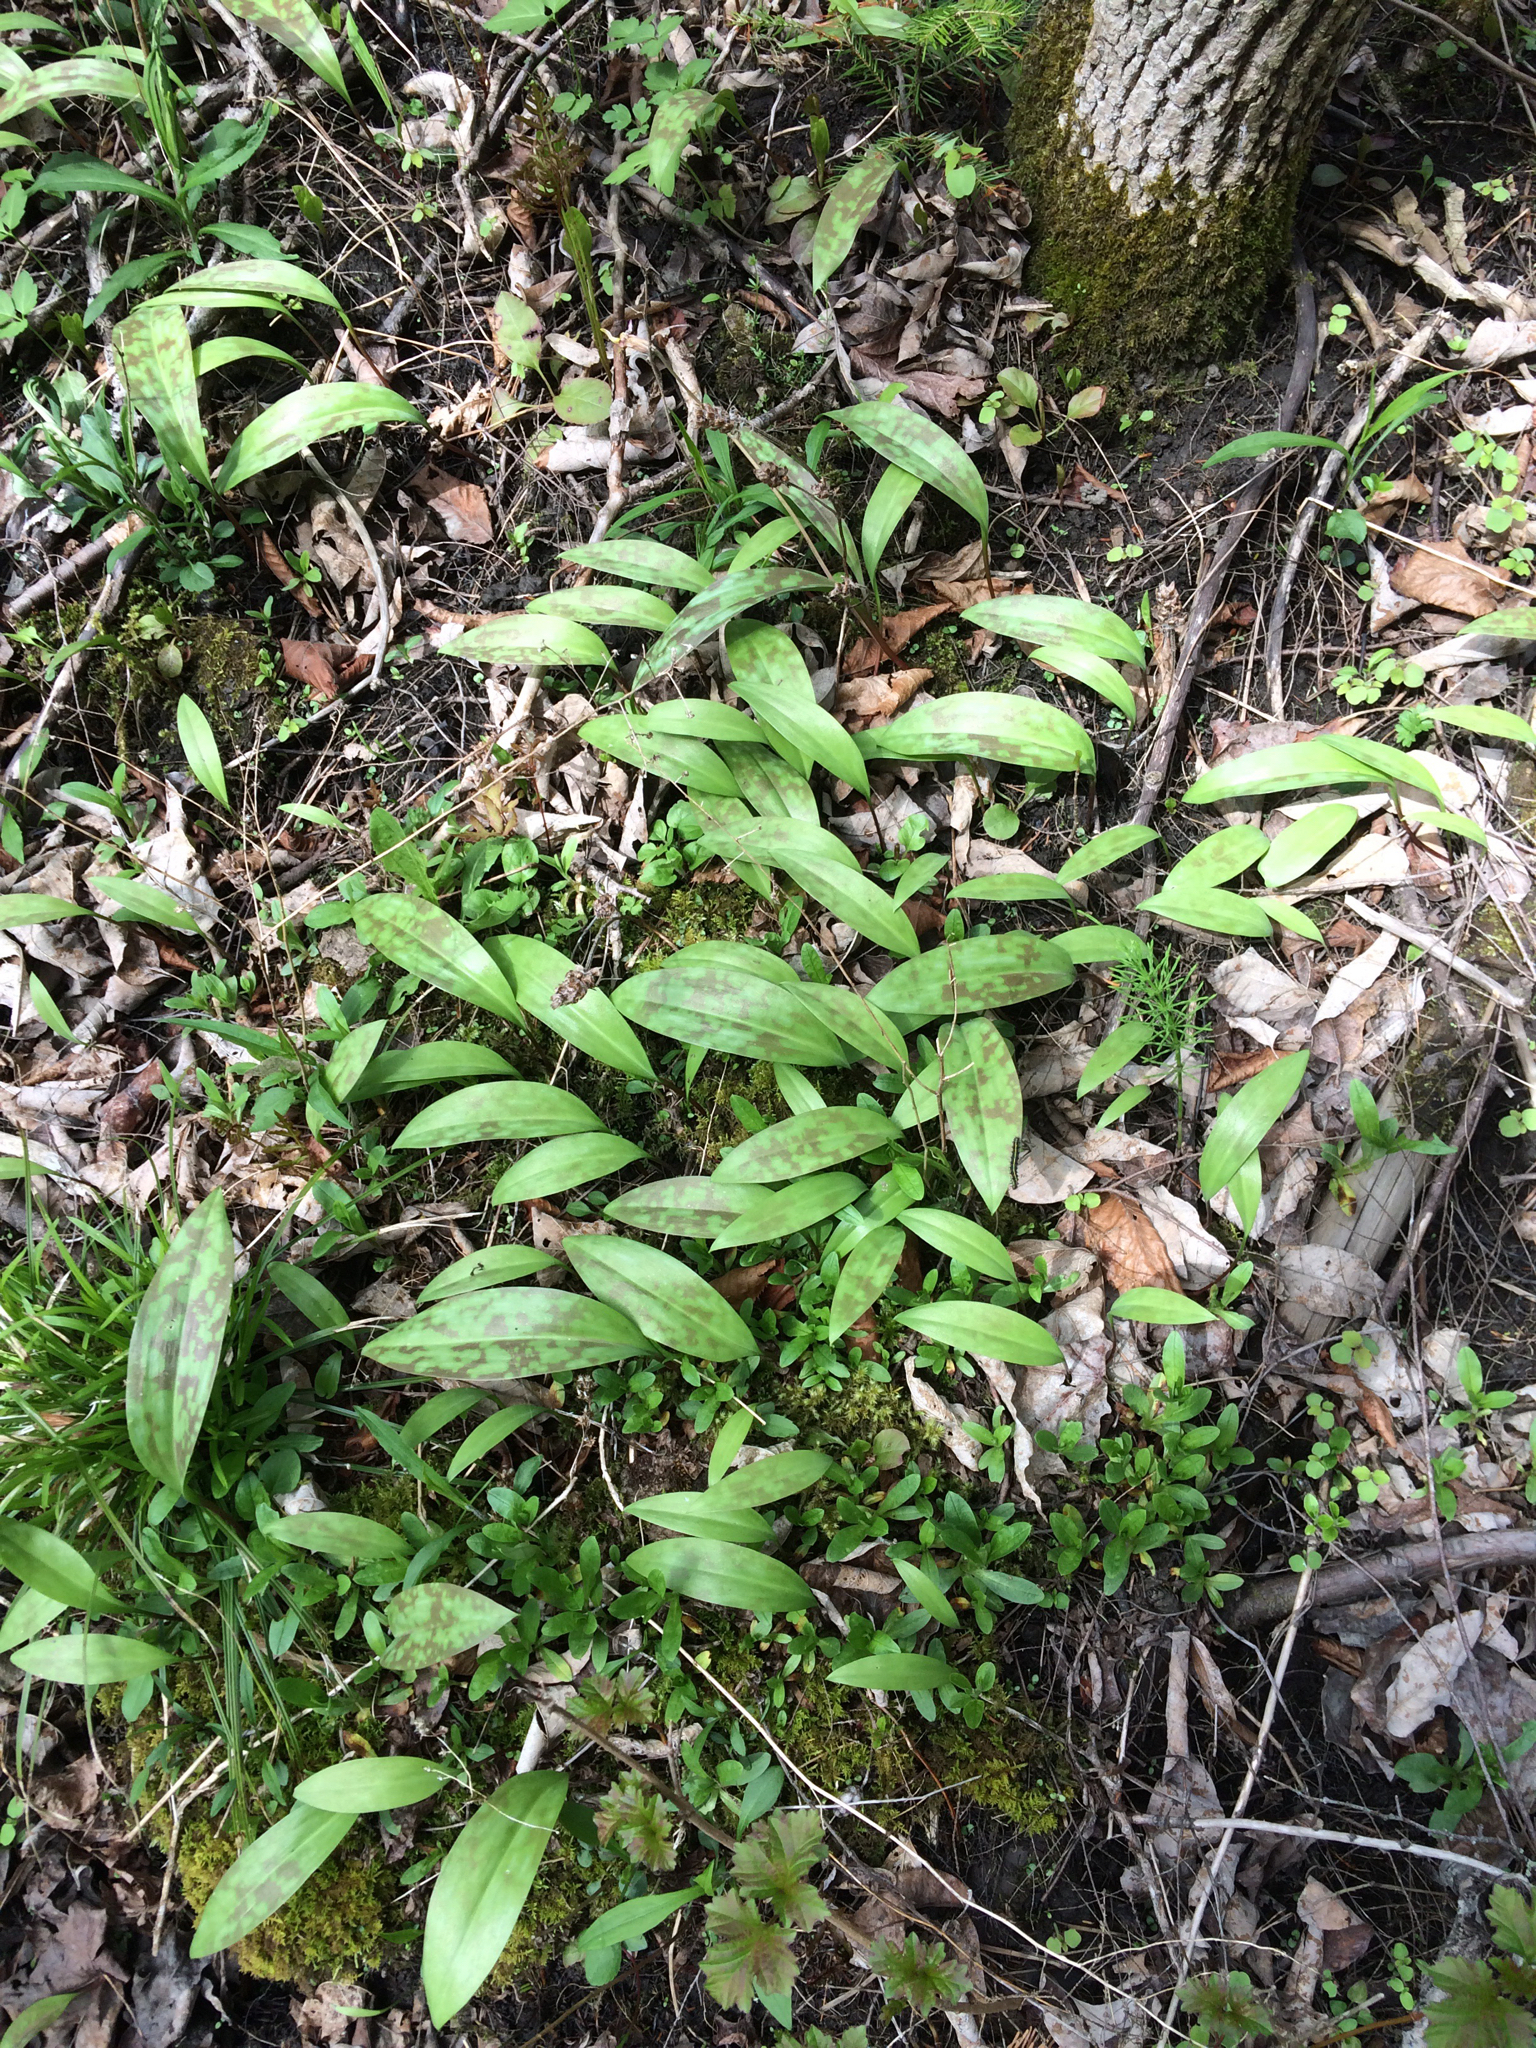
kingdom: Plantae
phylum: Tracheophyta
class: Liliopsida
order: Liliales
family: Liliaceae
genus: Erythronium
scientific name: Erythronium americanum
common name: Yellow adder's-tongue
